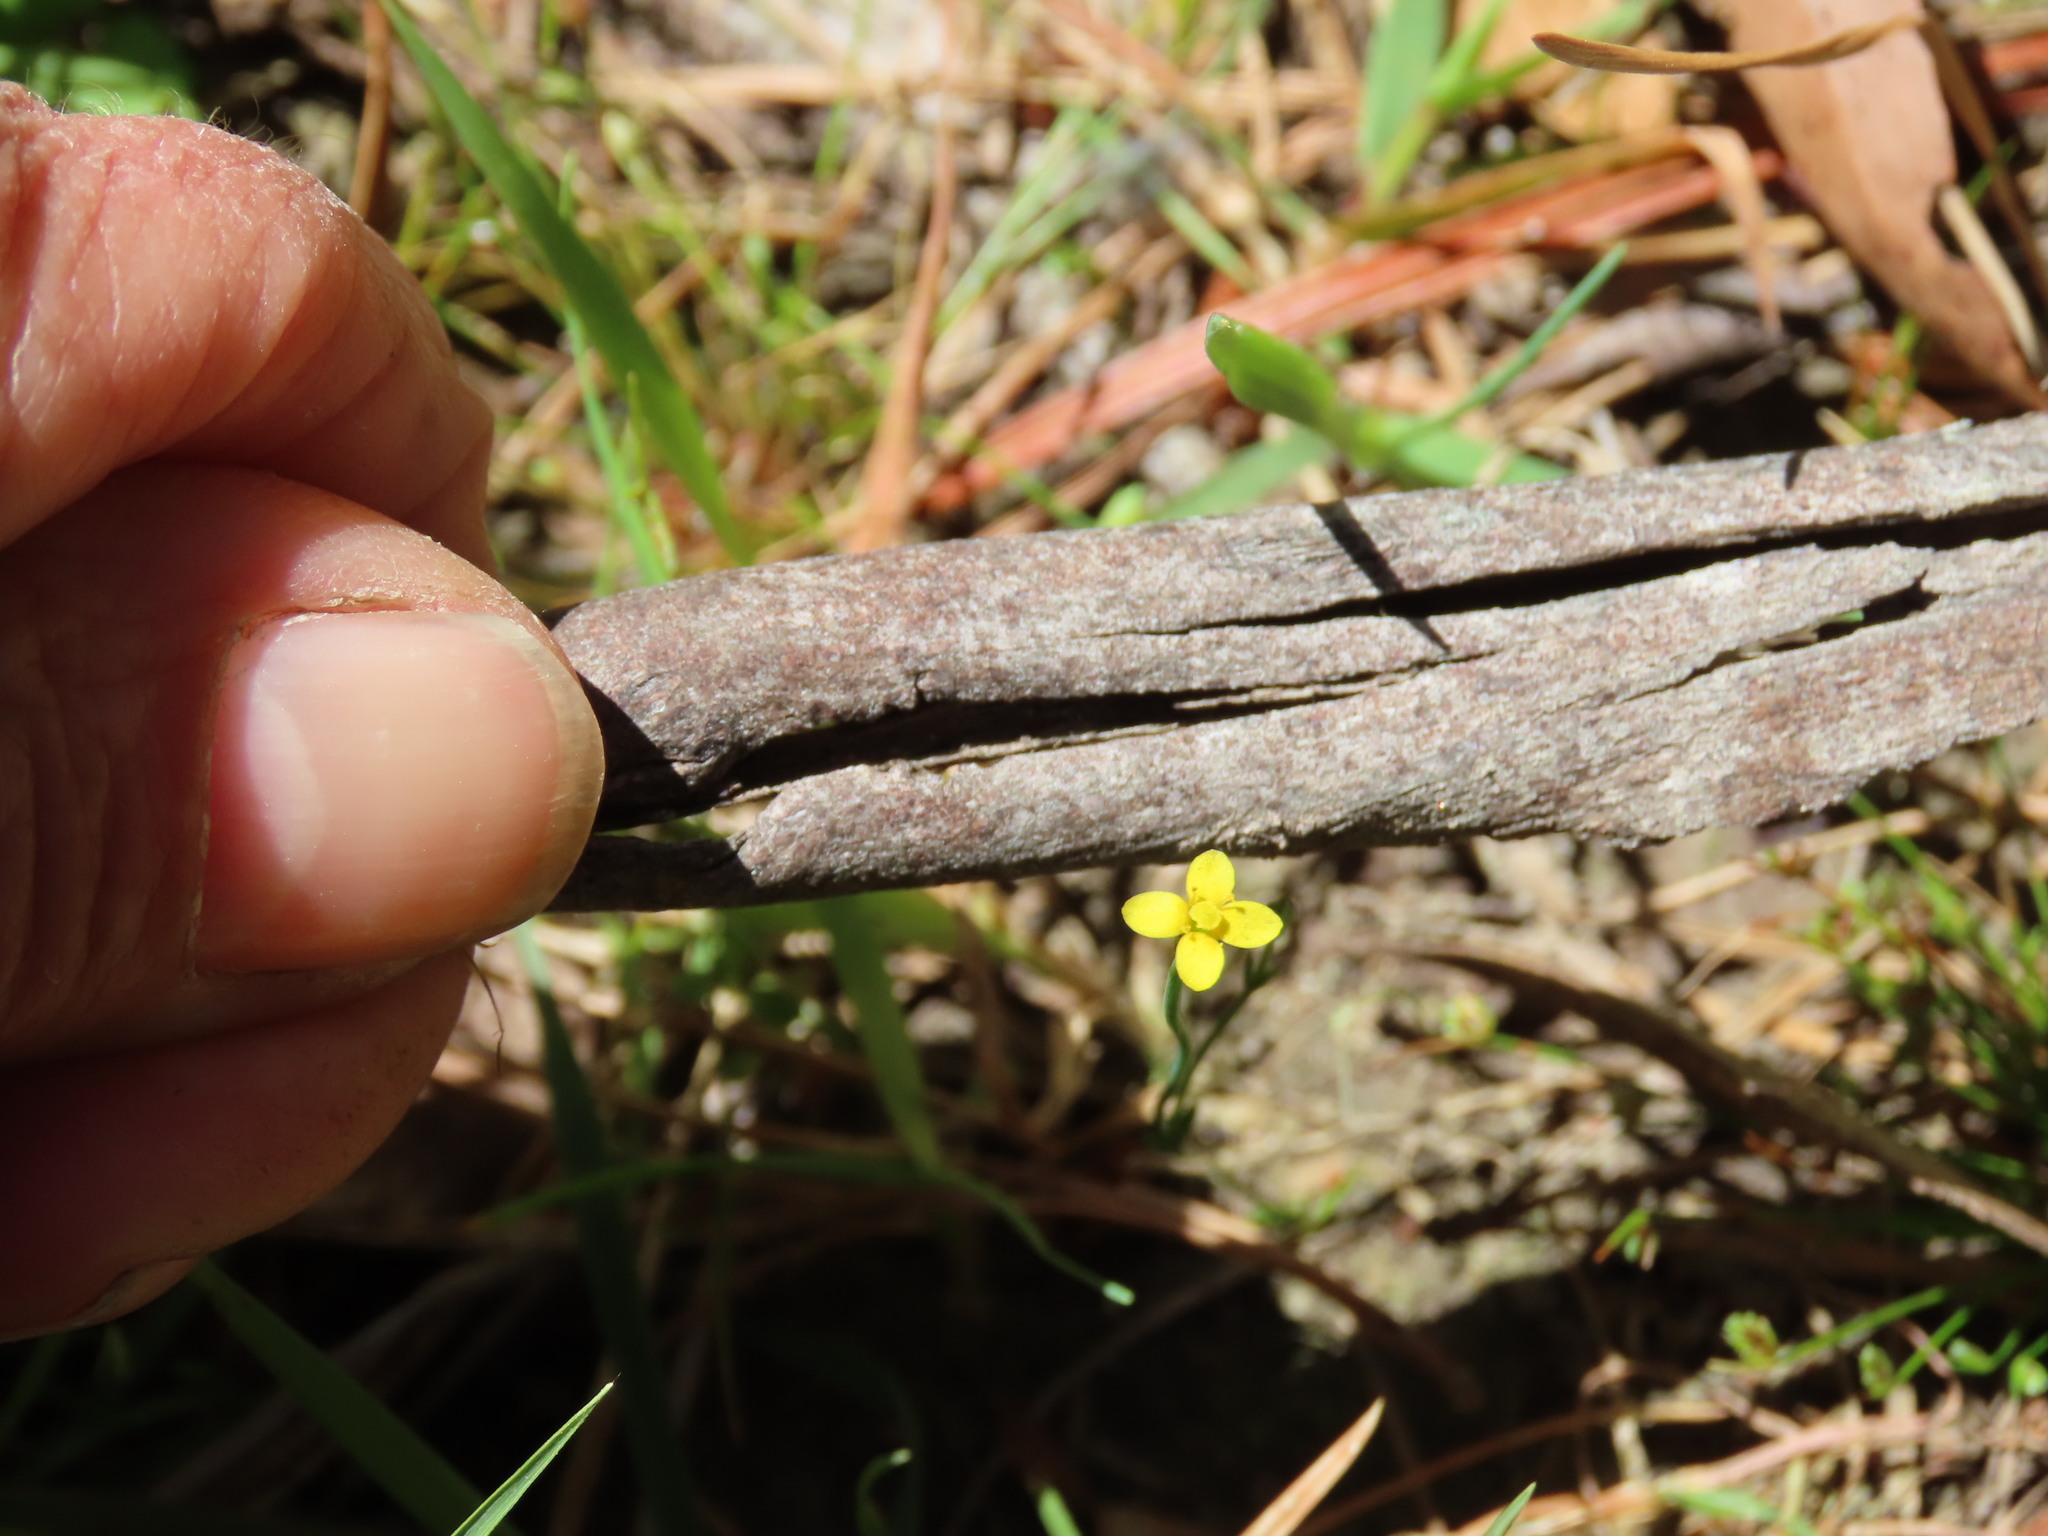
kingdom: Plantae
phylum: Tracheophyta
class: Magnoliopsida
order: Gentianales
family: Gentianaceae
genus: Cicendia
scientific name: Cicendia filiformis
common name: Yellow centaury
